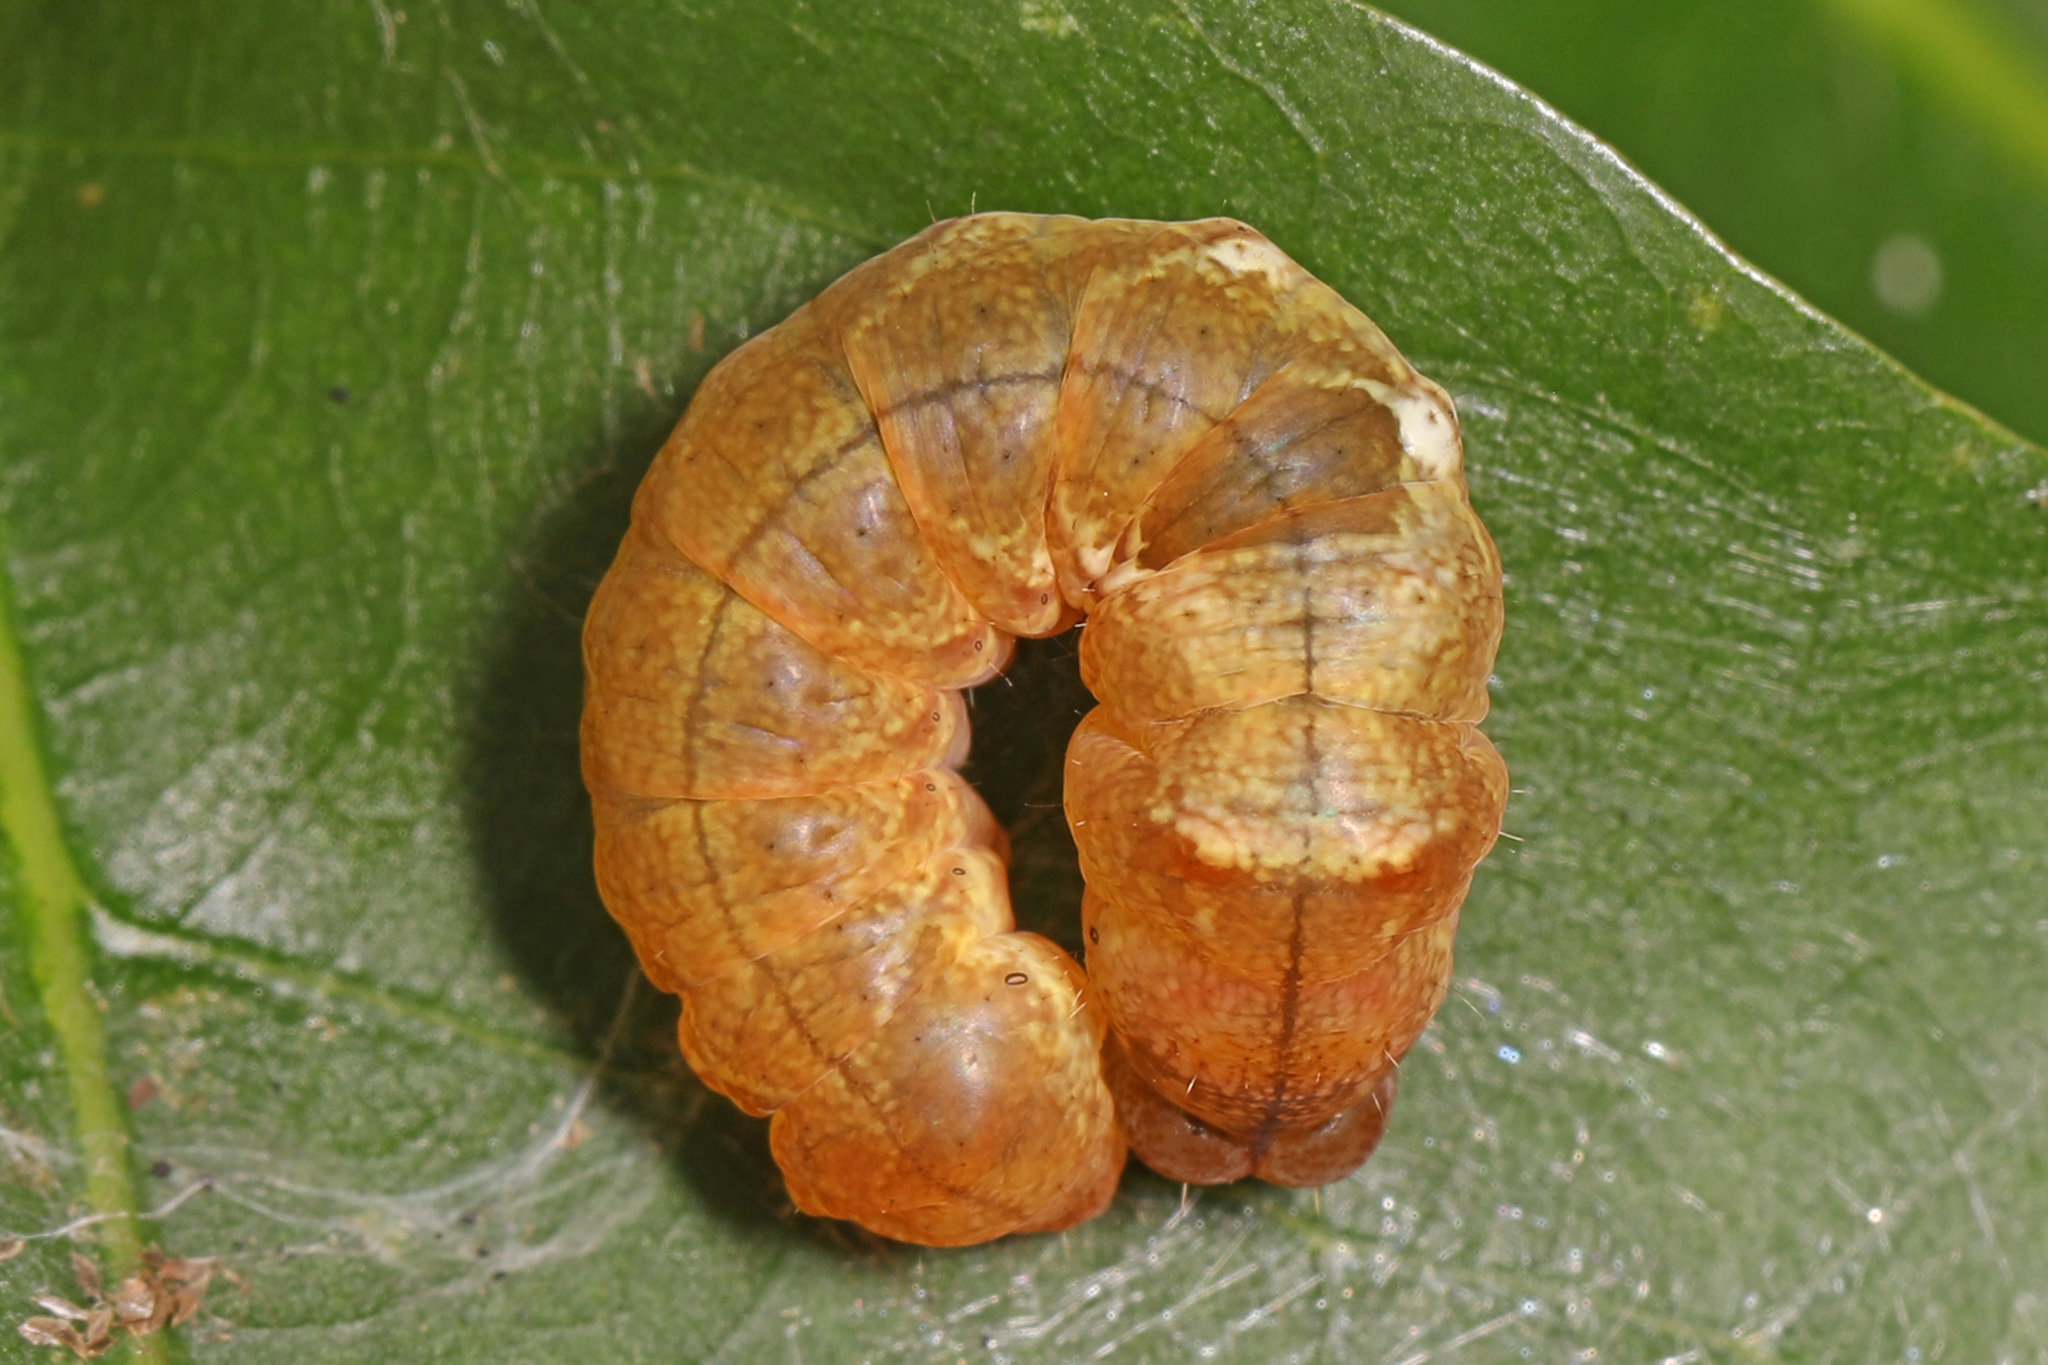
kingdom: Animalia
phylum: Arthropoda
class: Insecta
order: Lepidoptera
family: Drepanidae
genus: Pseudothyatira
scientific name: Pseudothyatira cymatophoroides
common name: Tufted thyatirid moth
